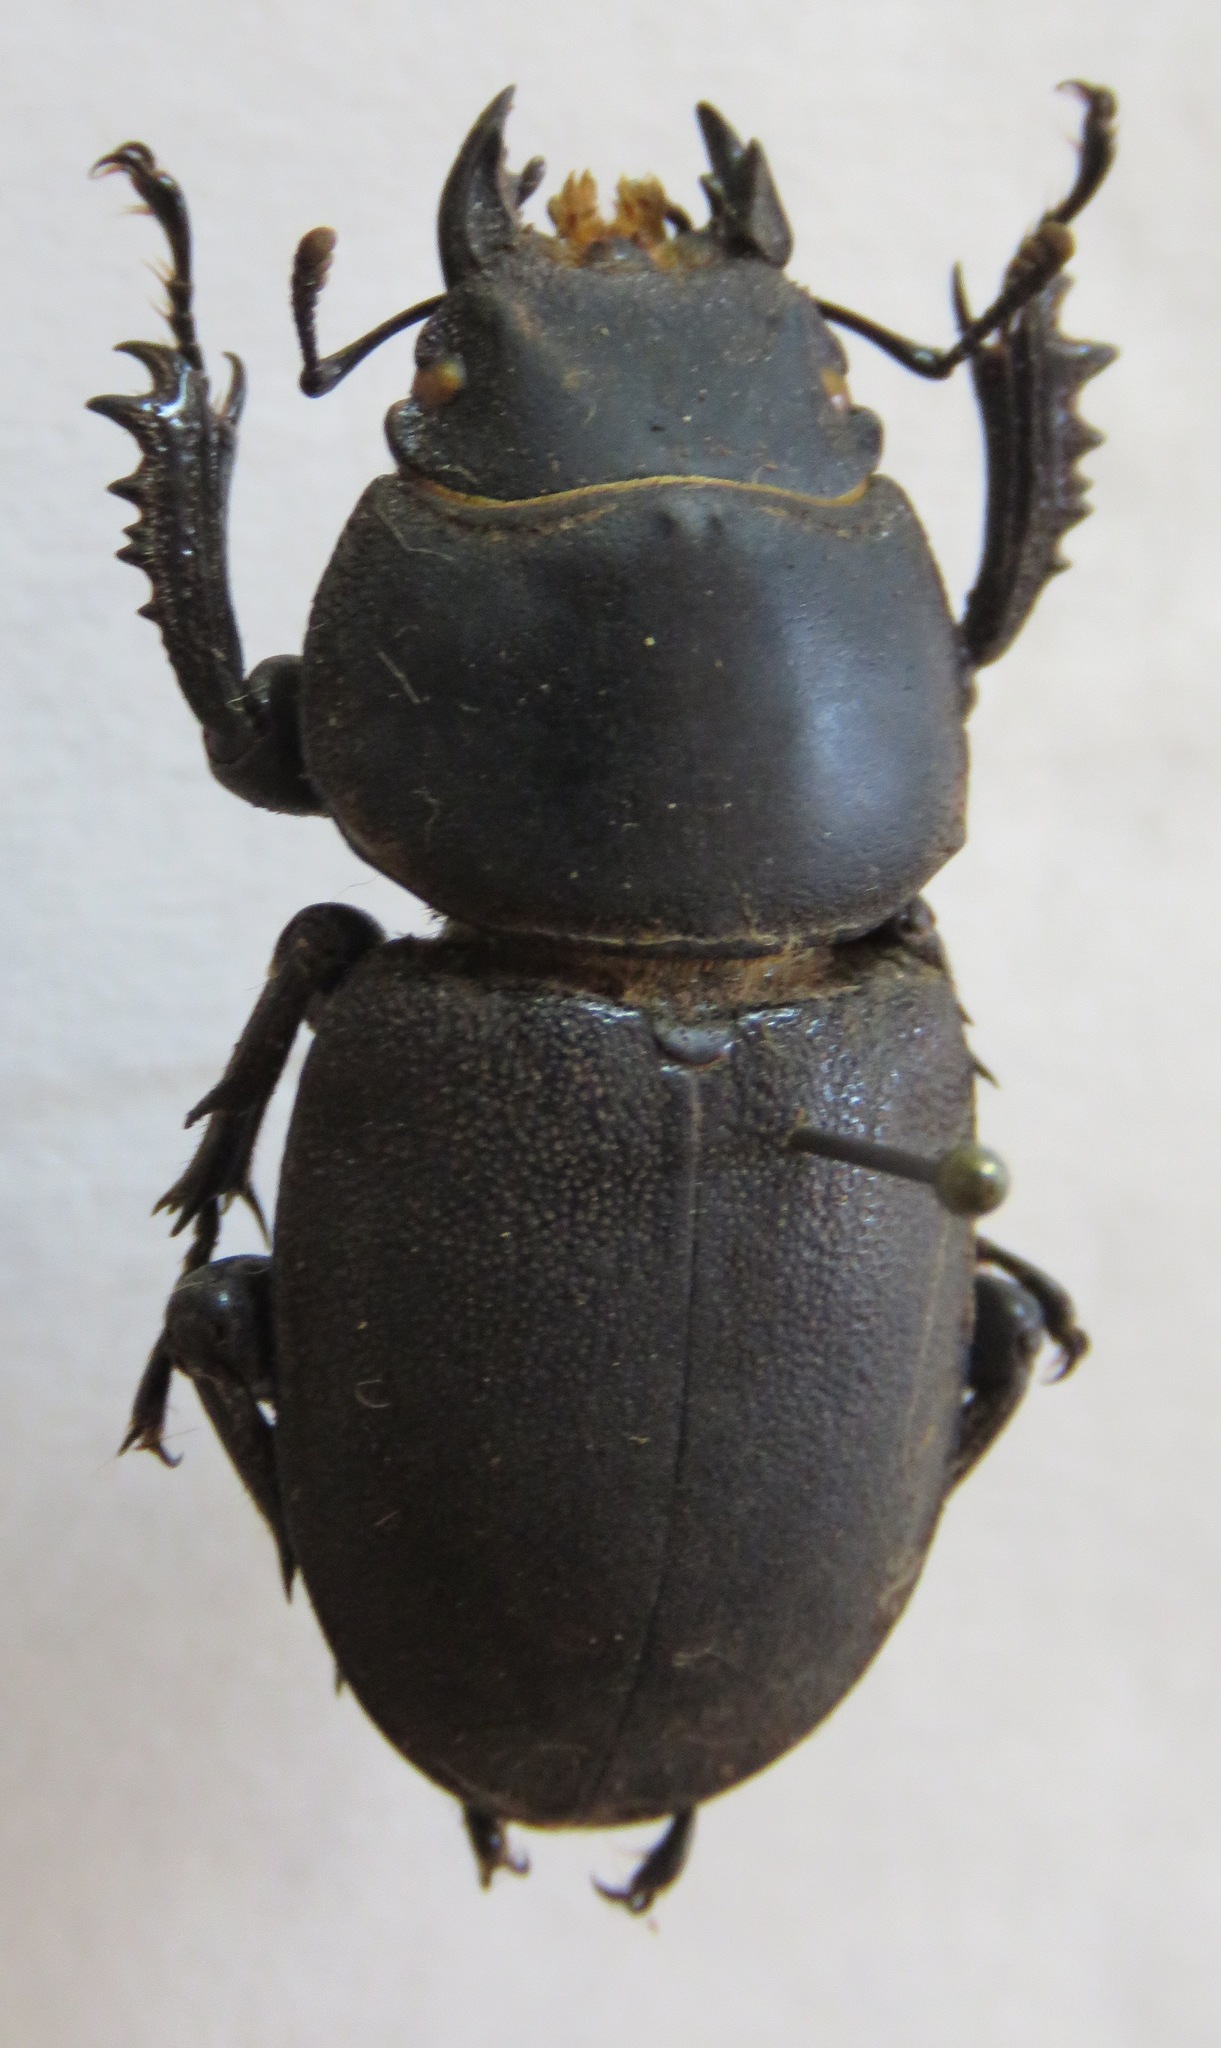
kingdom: Animalia
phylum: Arthropoda
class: Insecta
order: Coleoptera
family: Lucanidae
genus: Apterodorcus
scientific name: Apterodorcus bacchus
